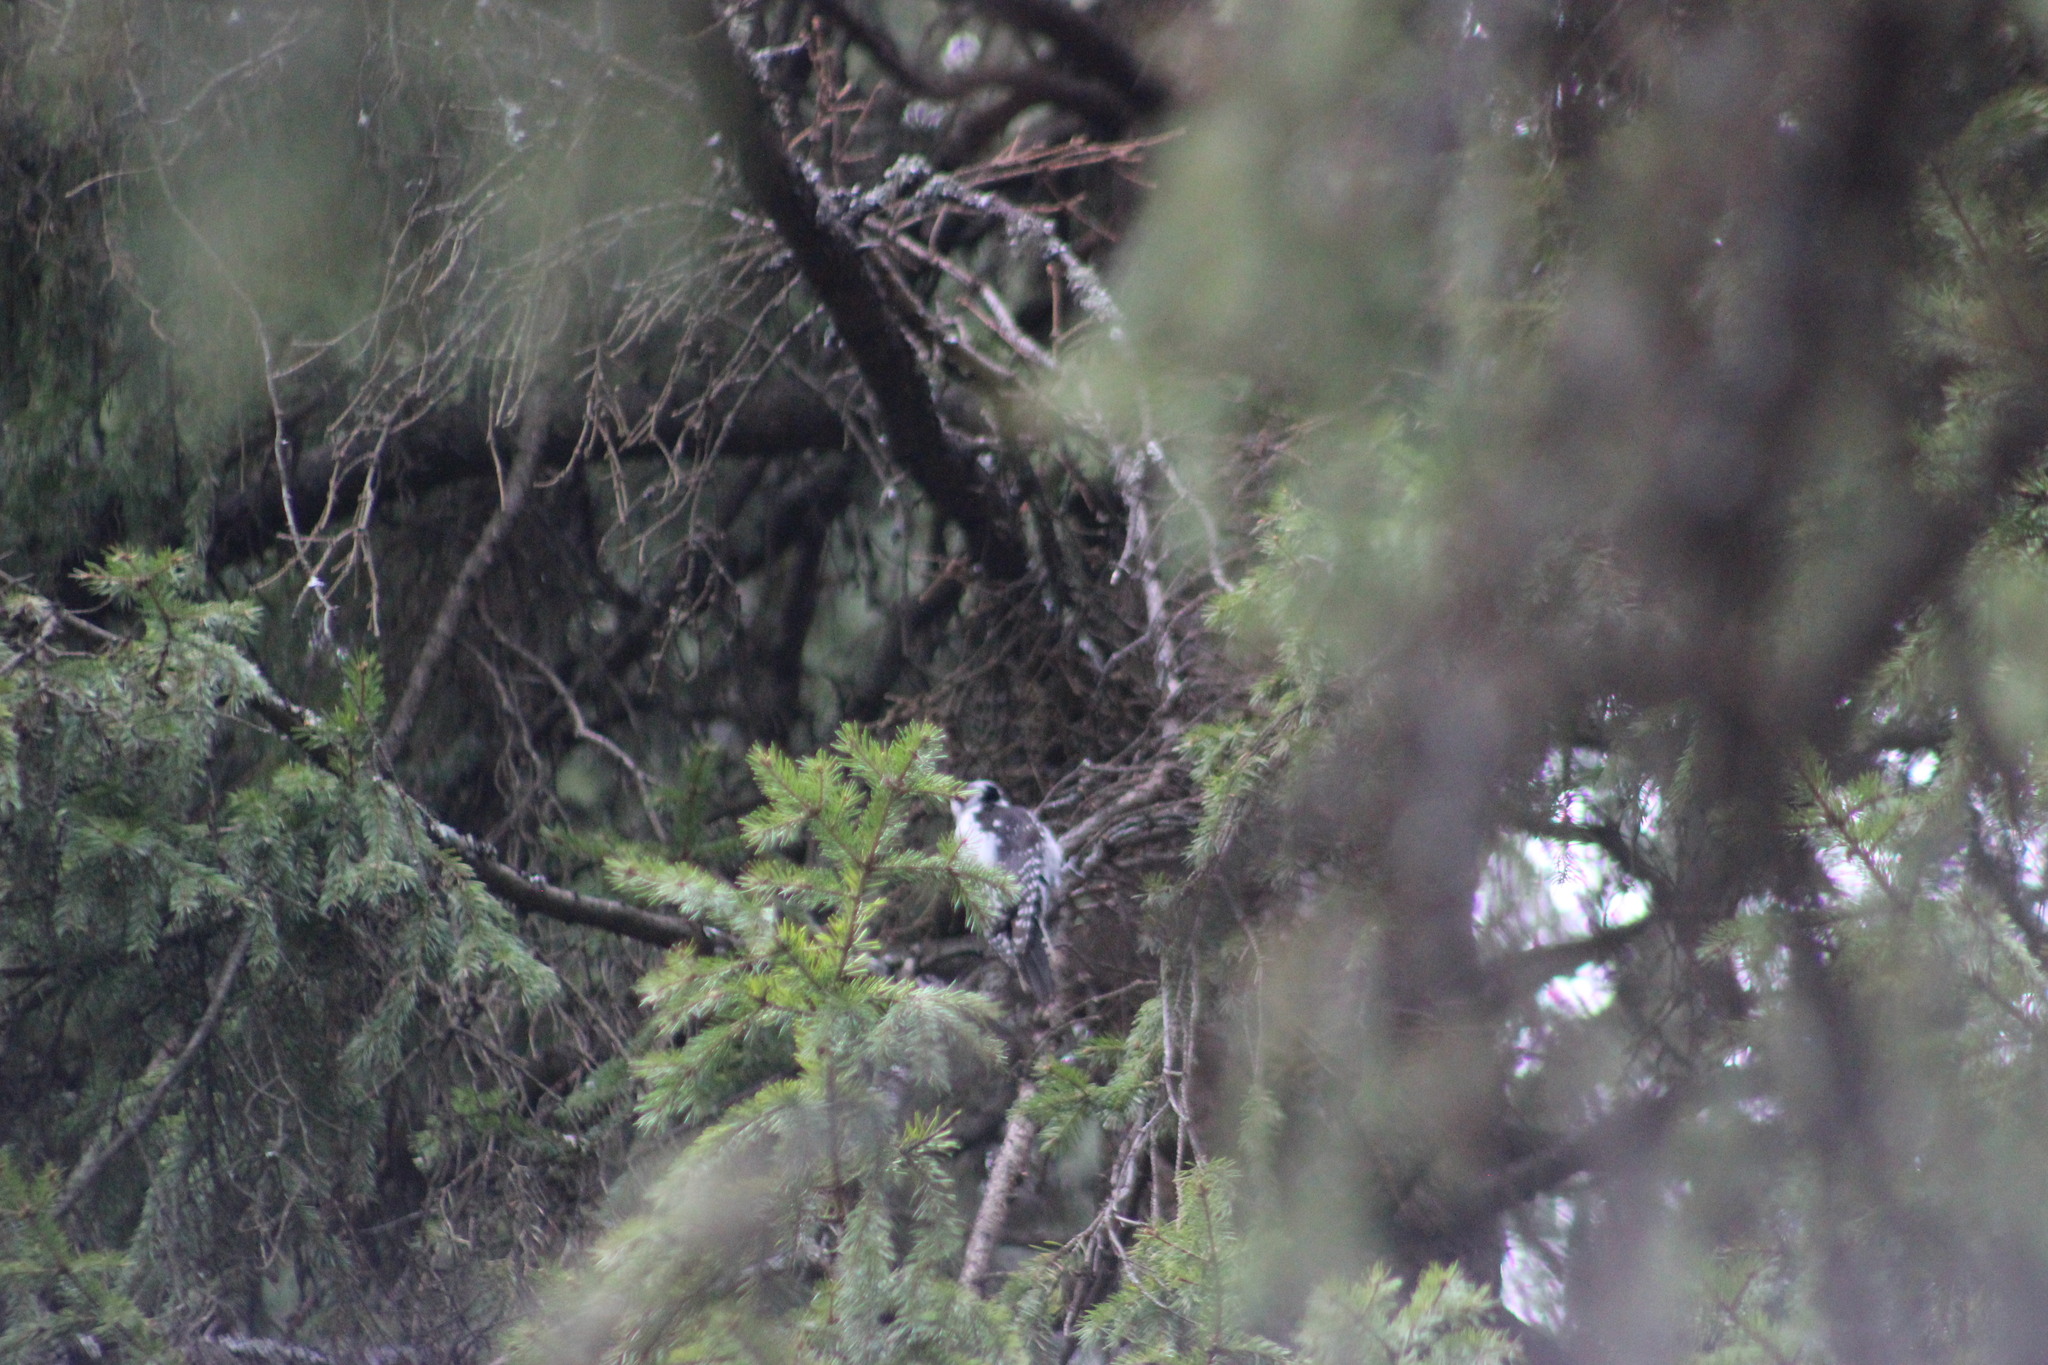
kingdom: Animalia
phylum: Chordata
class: Aves
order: Piciformes
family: Picidae
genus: Picoides
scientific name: Picoides tridactylus
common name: Eurasian three-toed woodpecker
